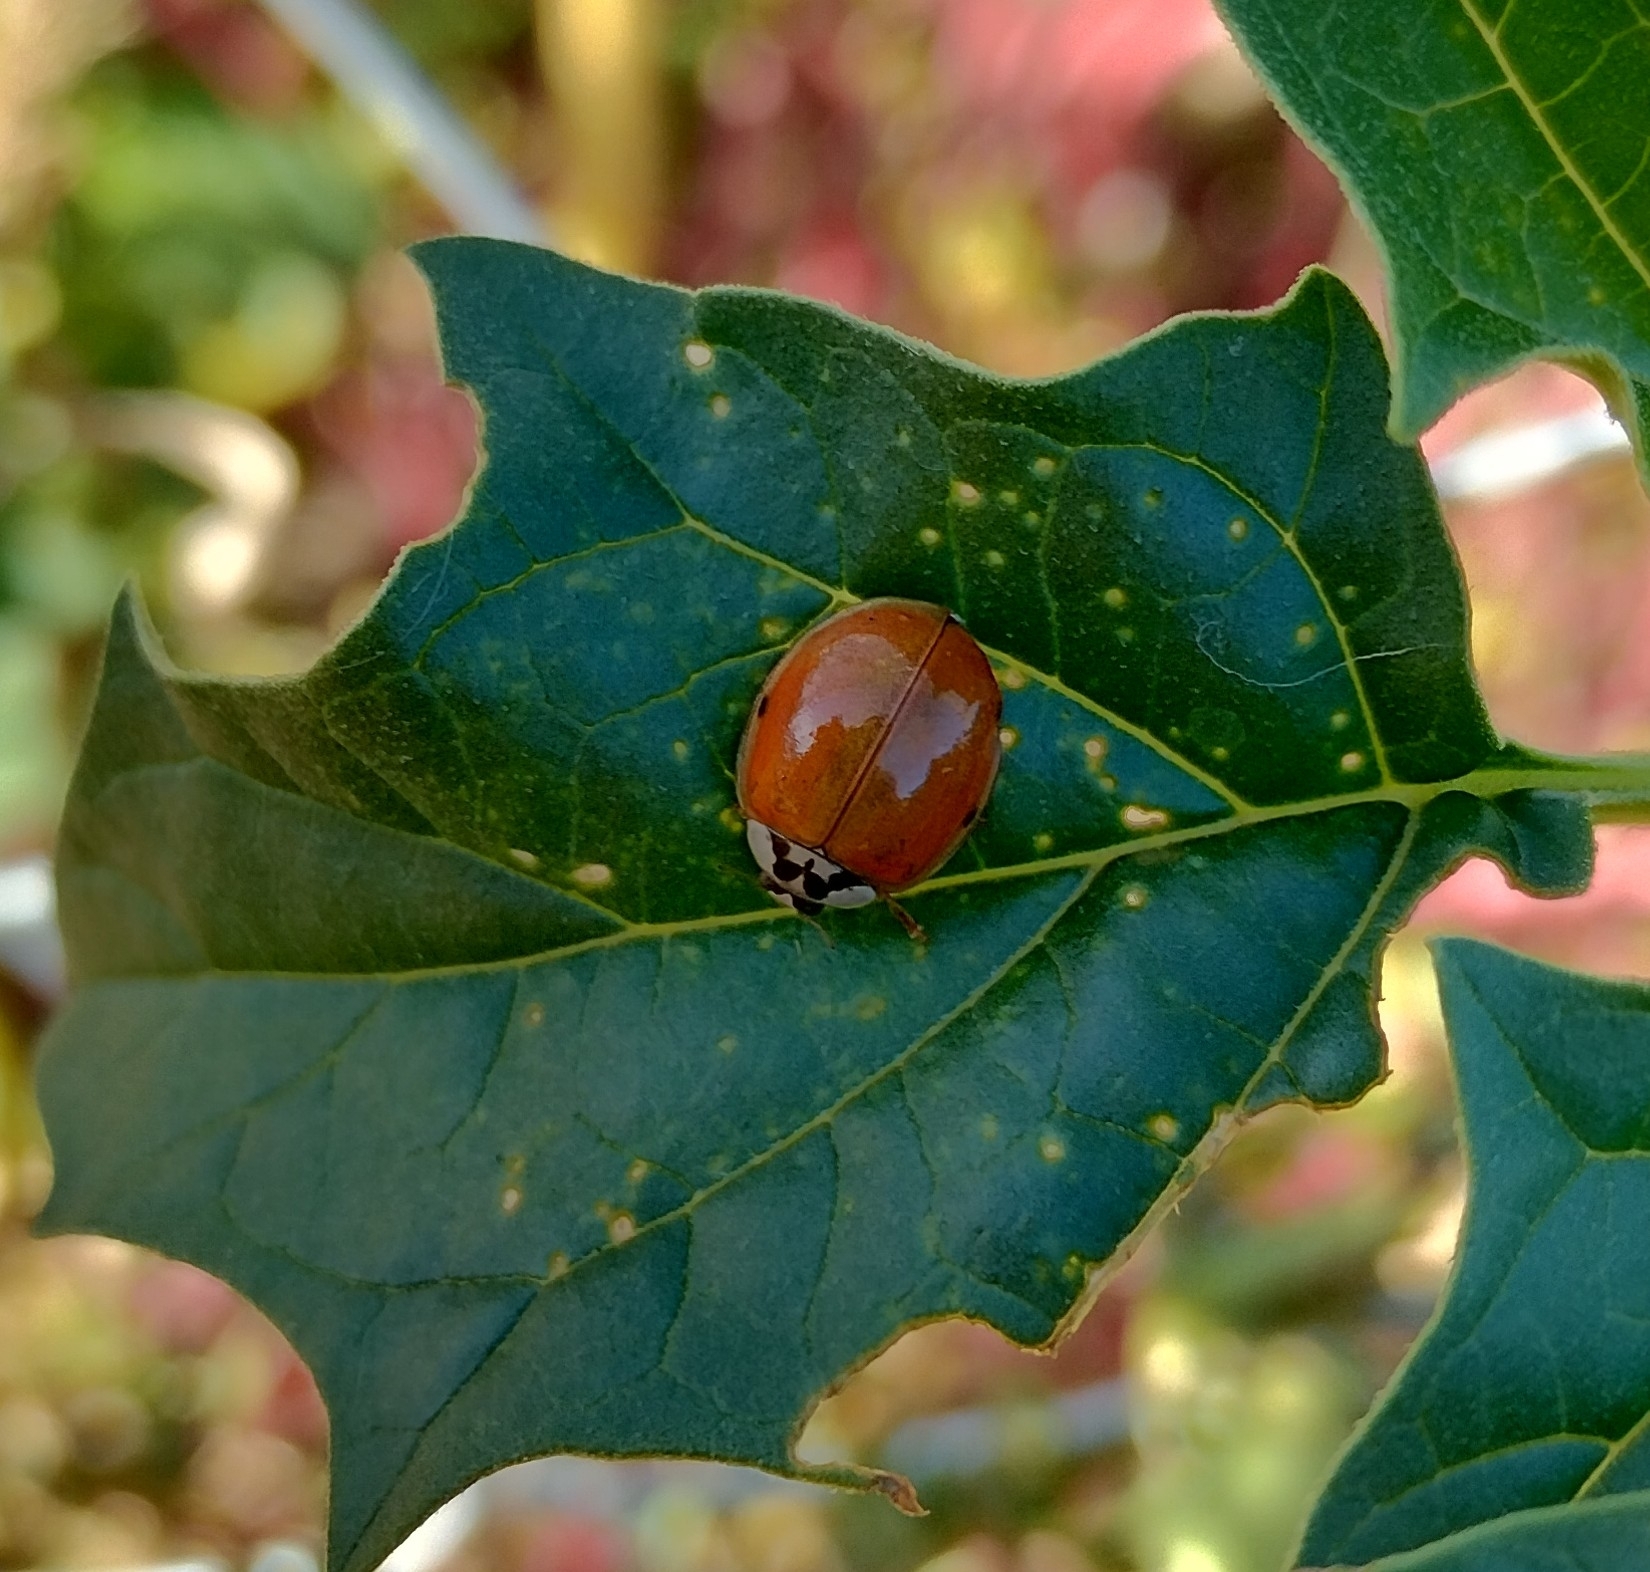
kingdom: Animalia
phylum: Arthropoda
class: Insecta
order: Coleoptera
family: Coccinellidae
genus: Harmonia
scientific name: Harmonia axyridis
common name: Harlequin ladybird
